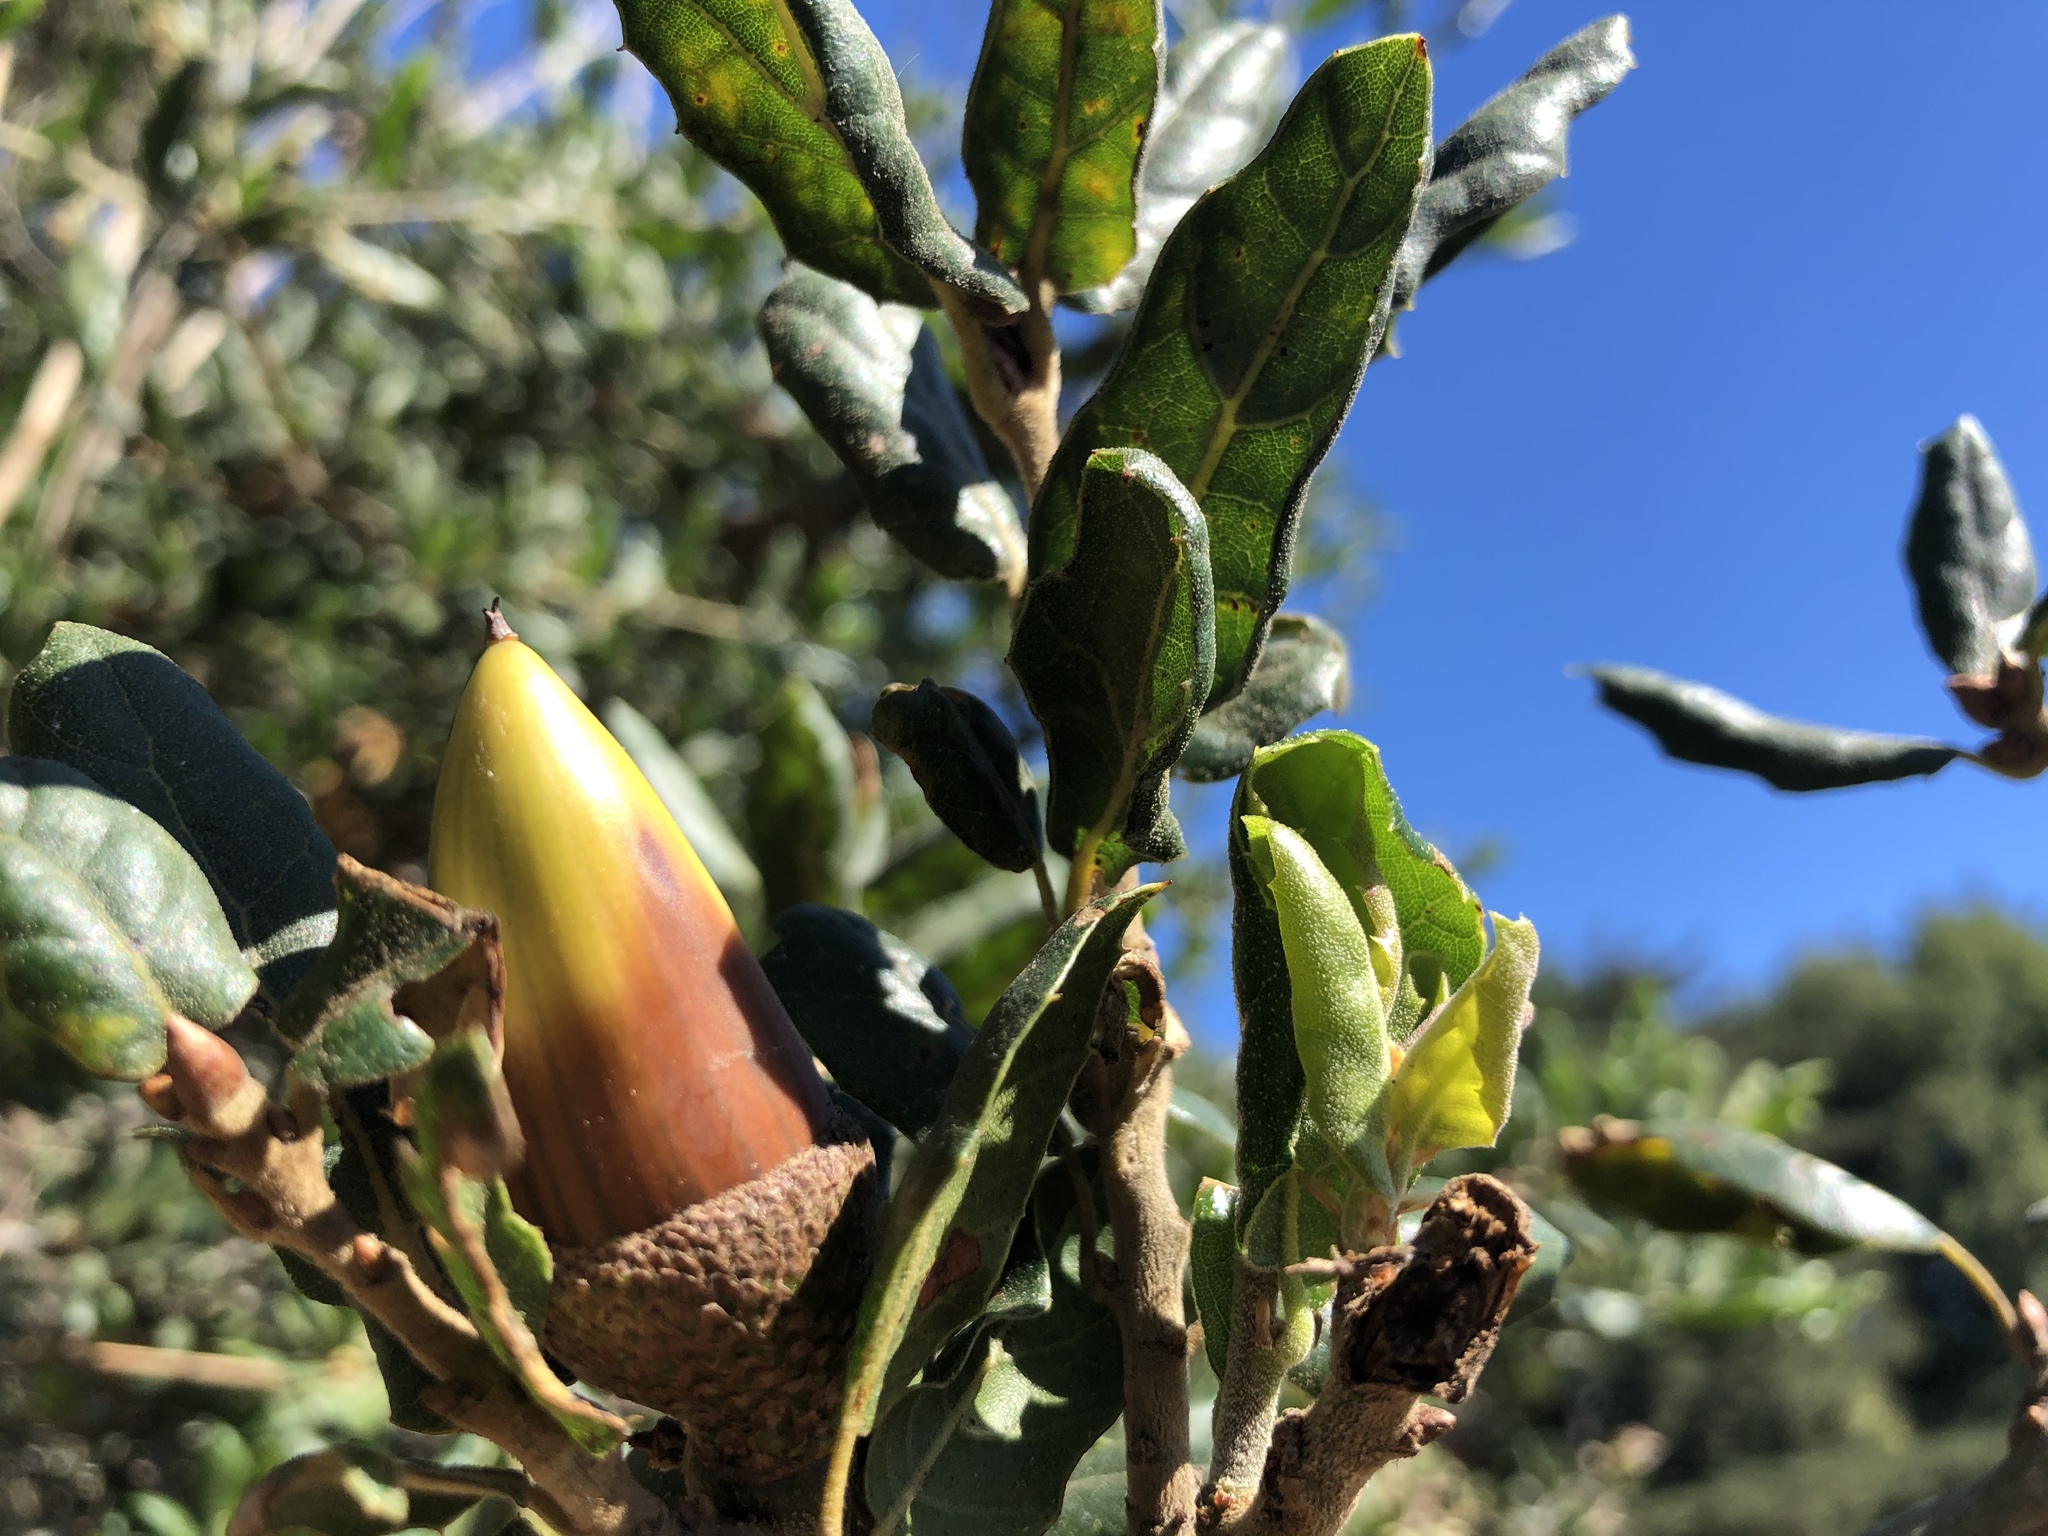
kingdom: Plantae
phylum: Tracheophyta
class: Magnoliopsida
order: Fagales
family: Fagaceae
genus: Quercus
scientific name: Quercus agrifolia
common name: California live oak
